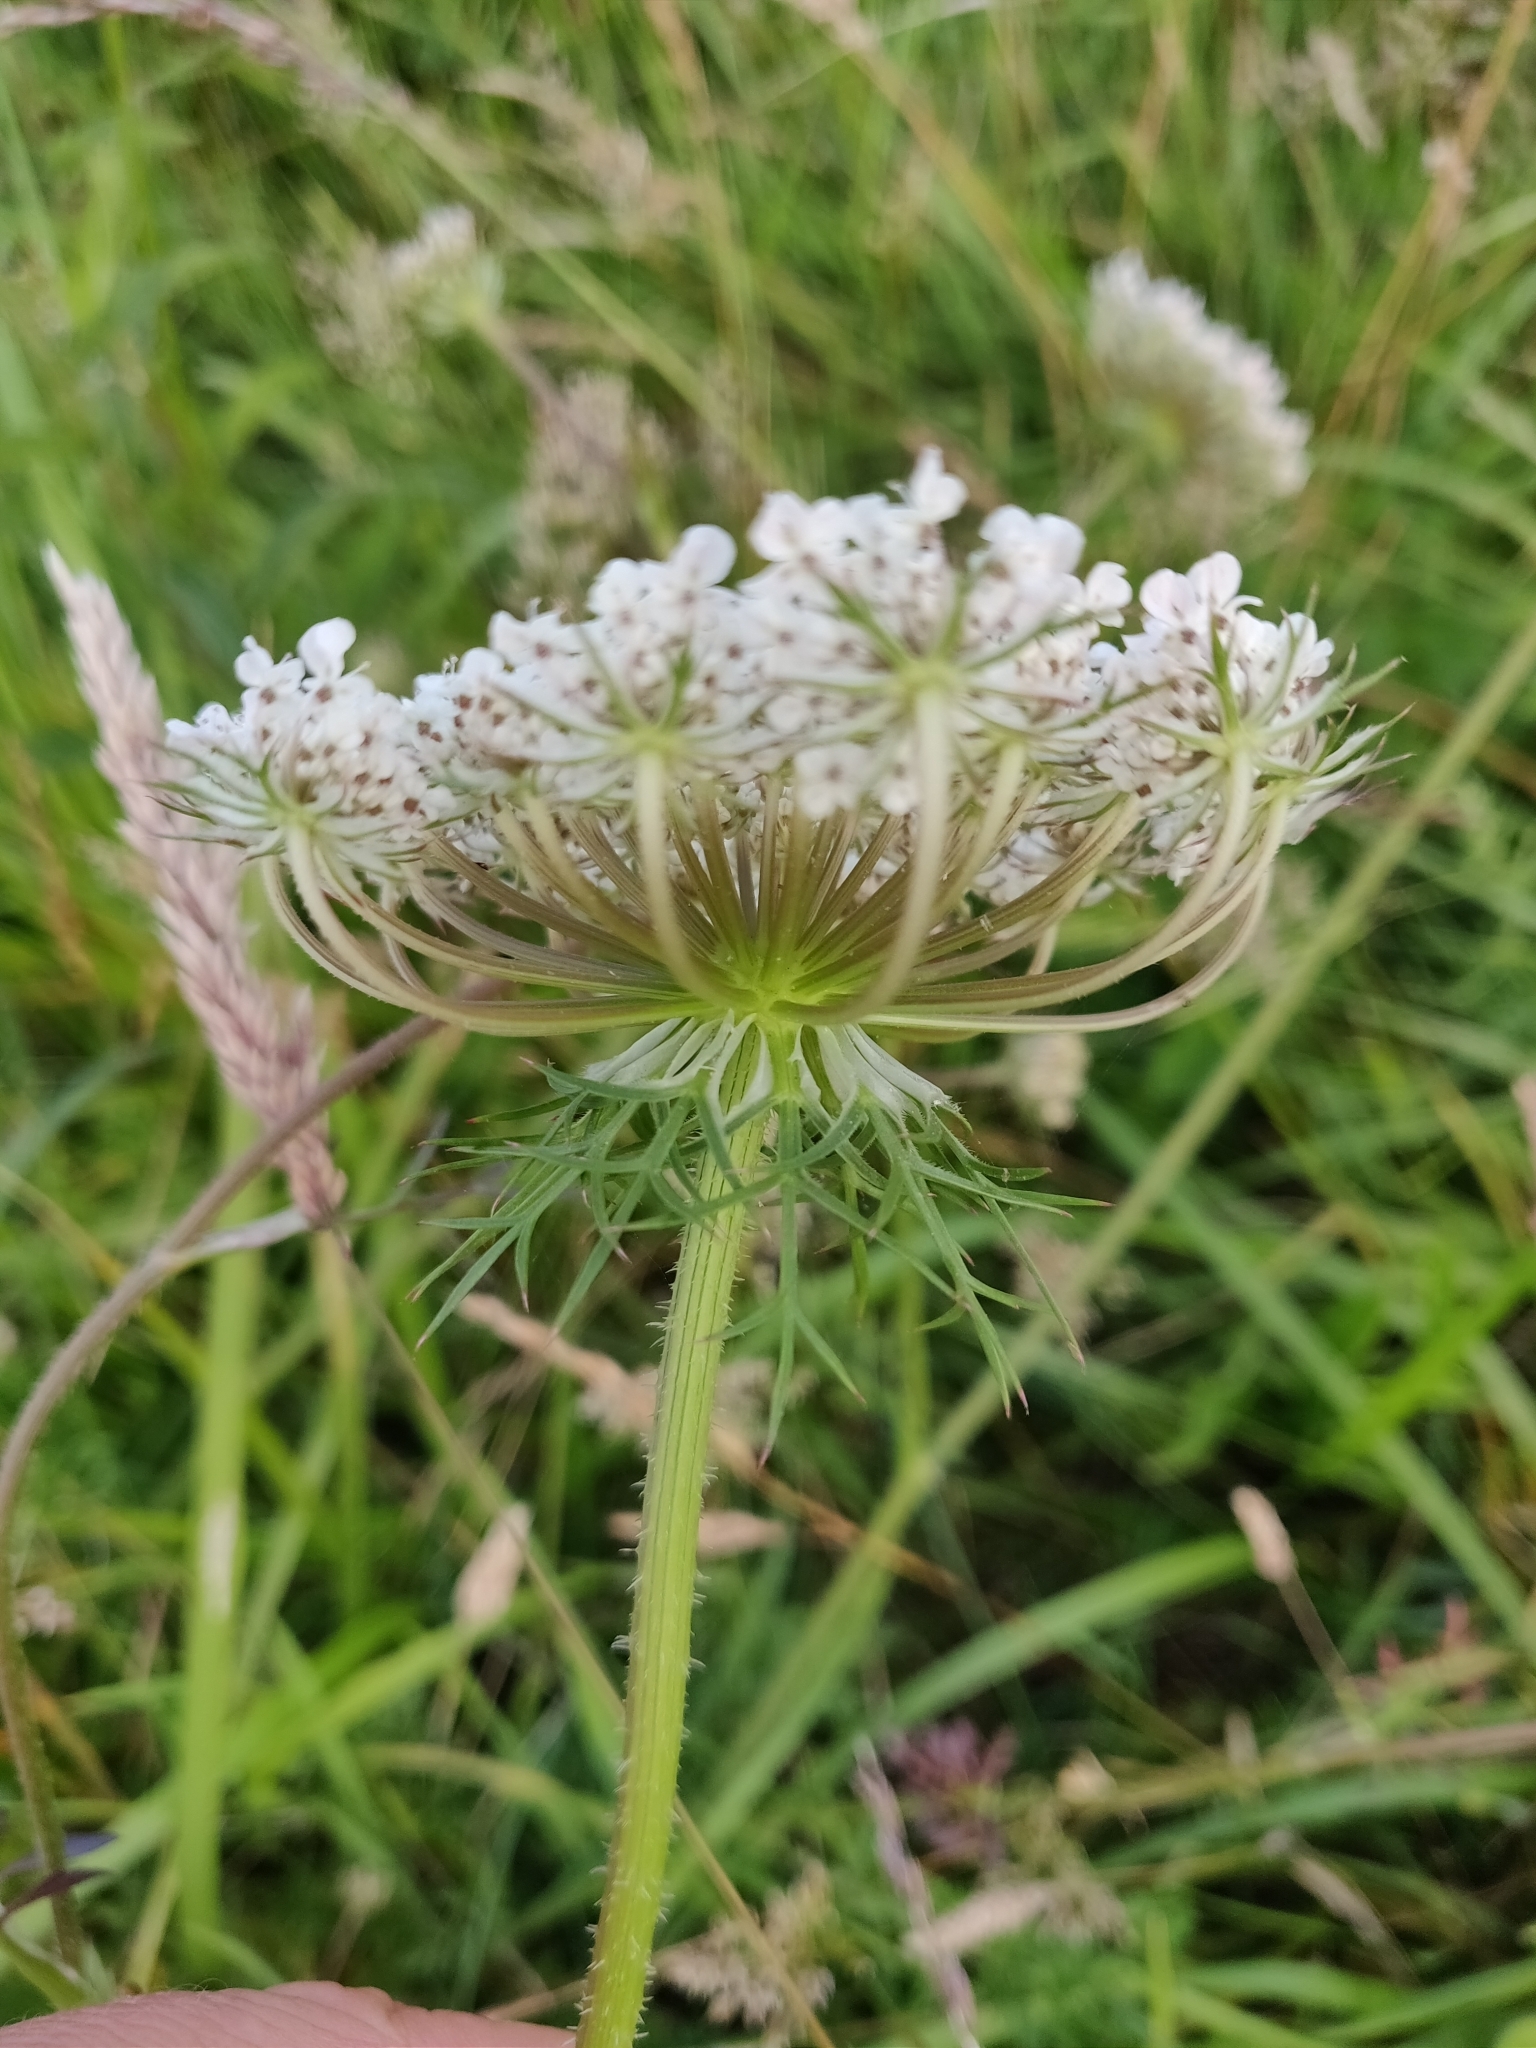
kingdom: Plantae
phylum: Tracheophyta
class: Magnoliopsida
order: Apiales
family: Apiaceae
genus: Daucus
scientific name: Daucus carota
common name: Wild carrot
